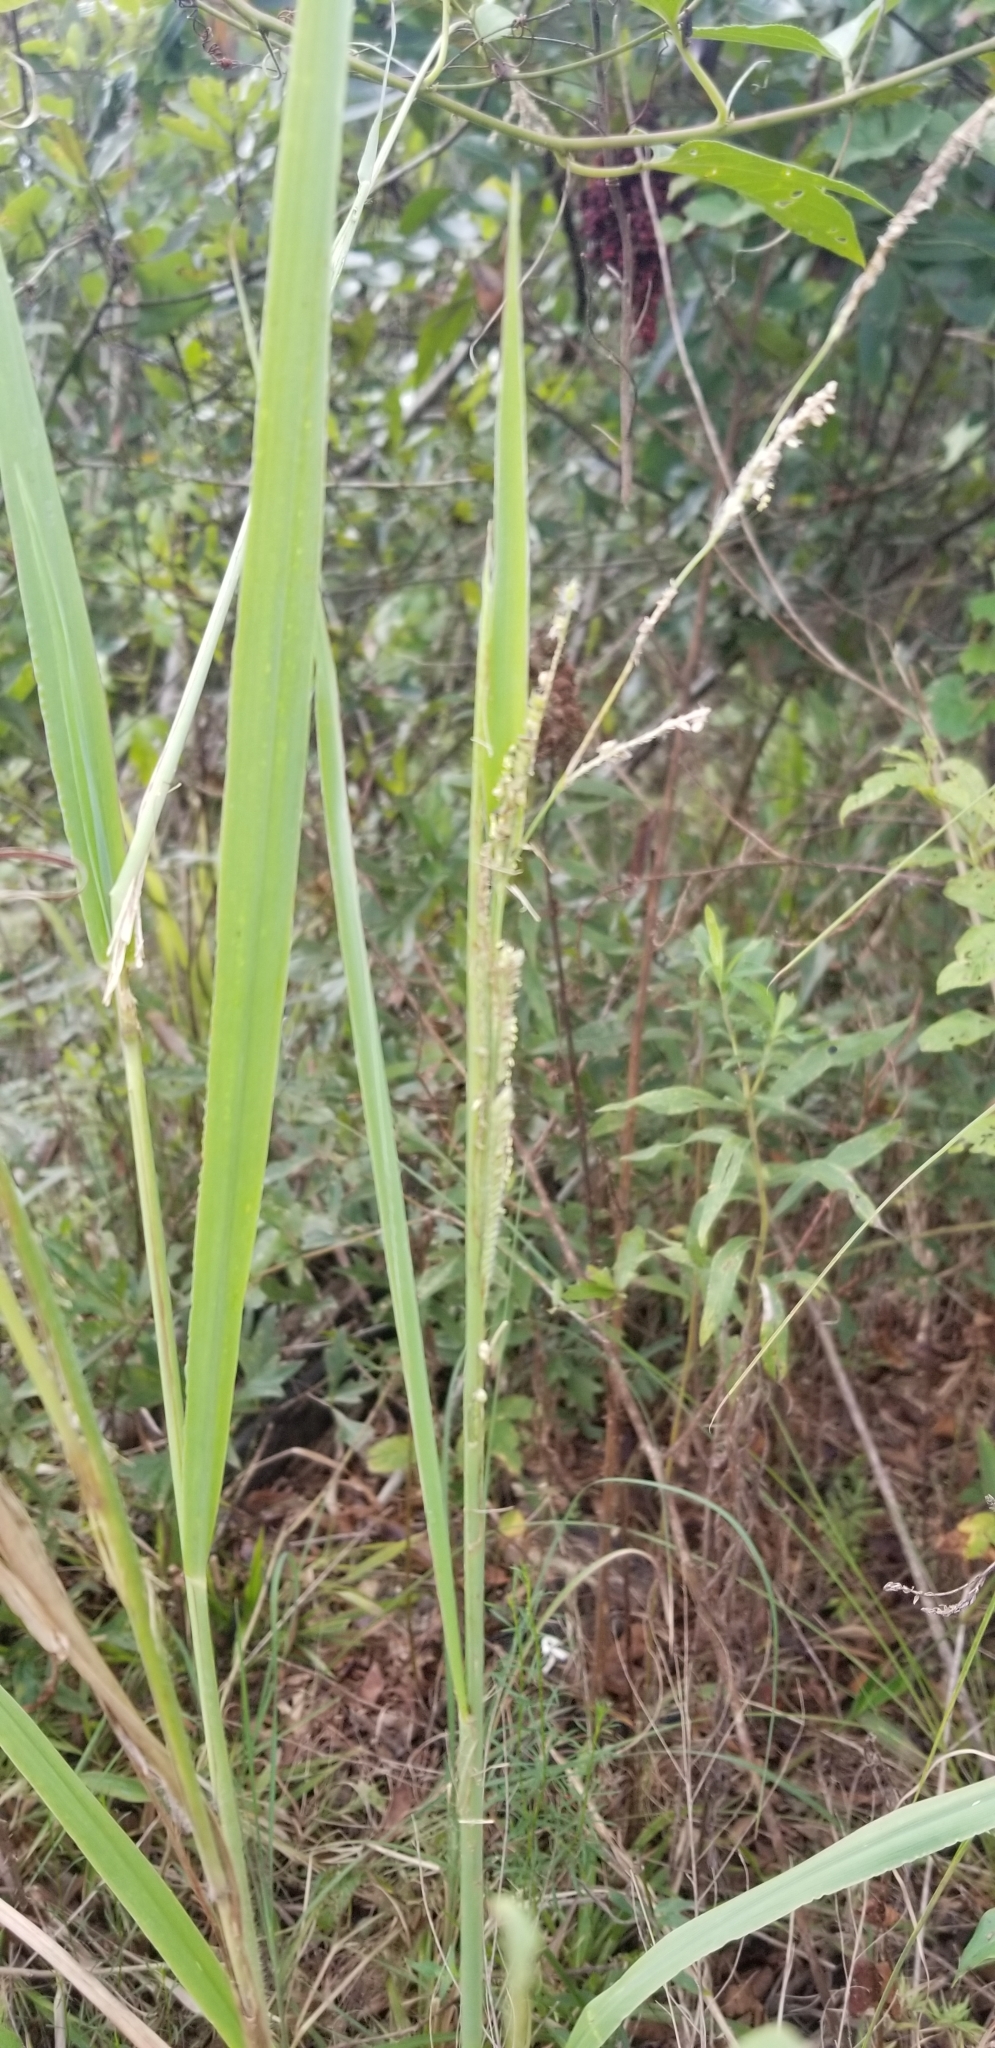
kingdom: Plantae
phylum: Tracheophyta
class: Liliopsida
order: Poales
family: Poaceae
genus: Paspalum
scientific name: Paspalum urvillei
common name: Vasey's grass
